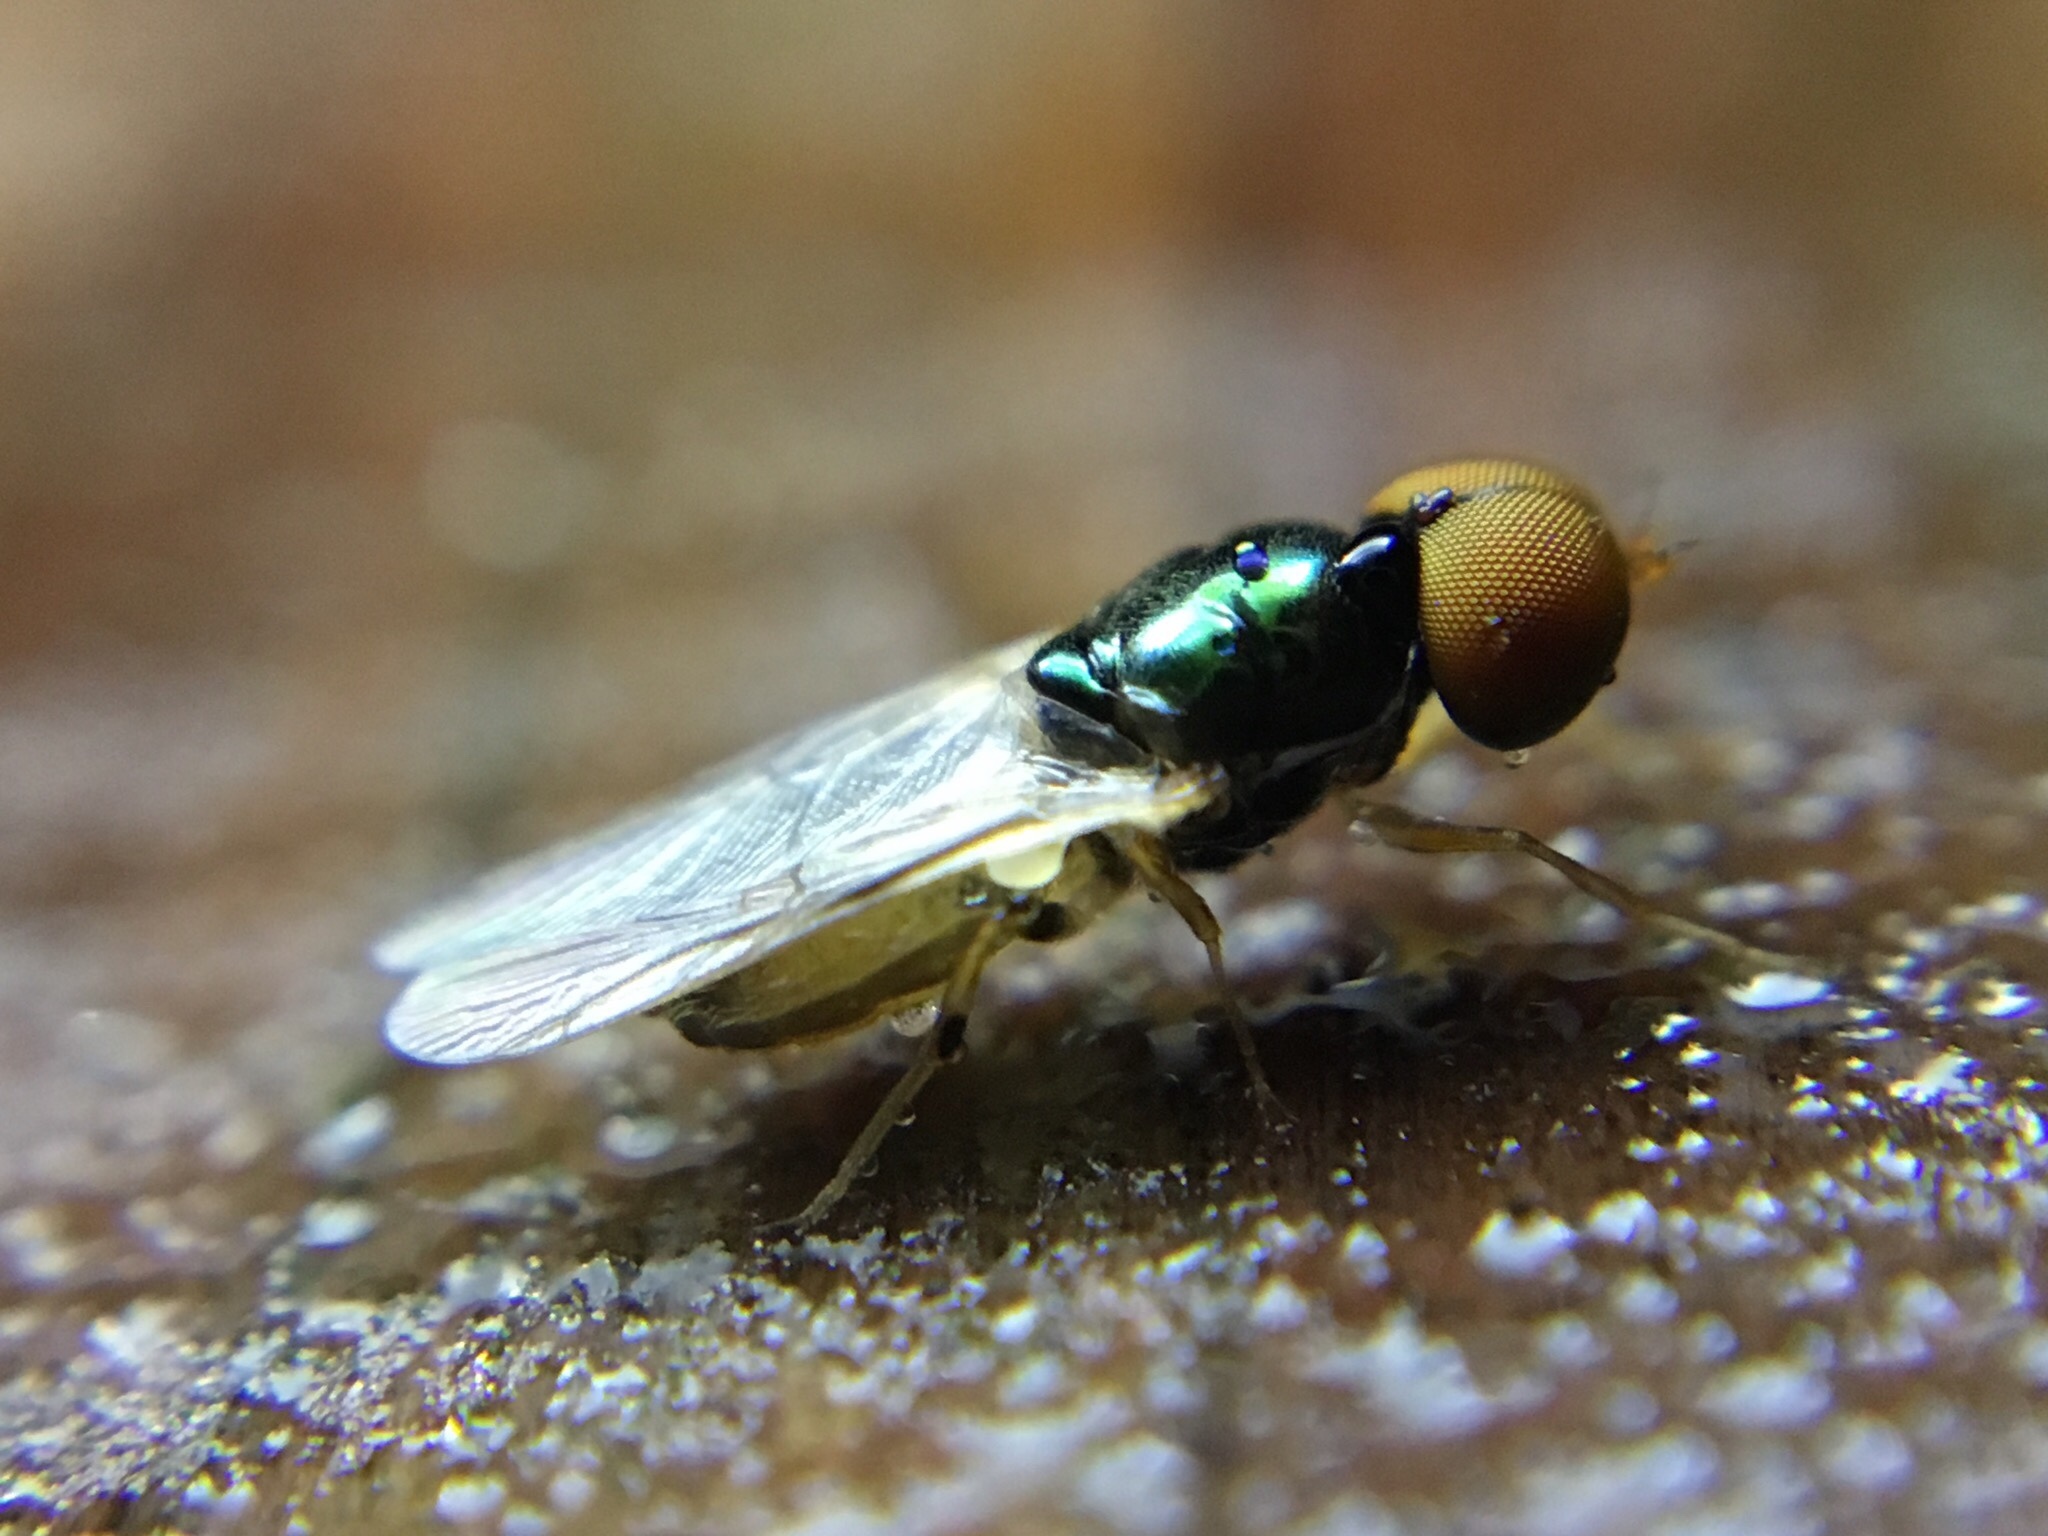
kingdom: Animalia
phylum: Arthropoda
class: Insecta
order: Diptera
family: Stratiomyidae
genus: Microchrysa
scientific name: Microchrysa flaviventris
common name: Soldier fly
